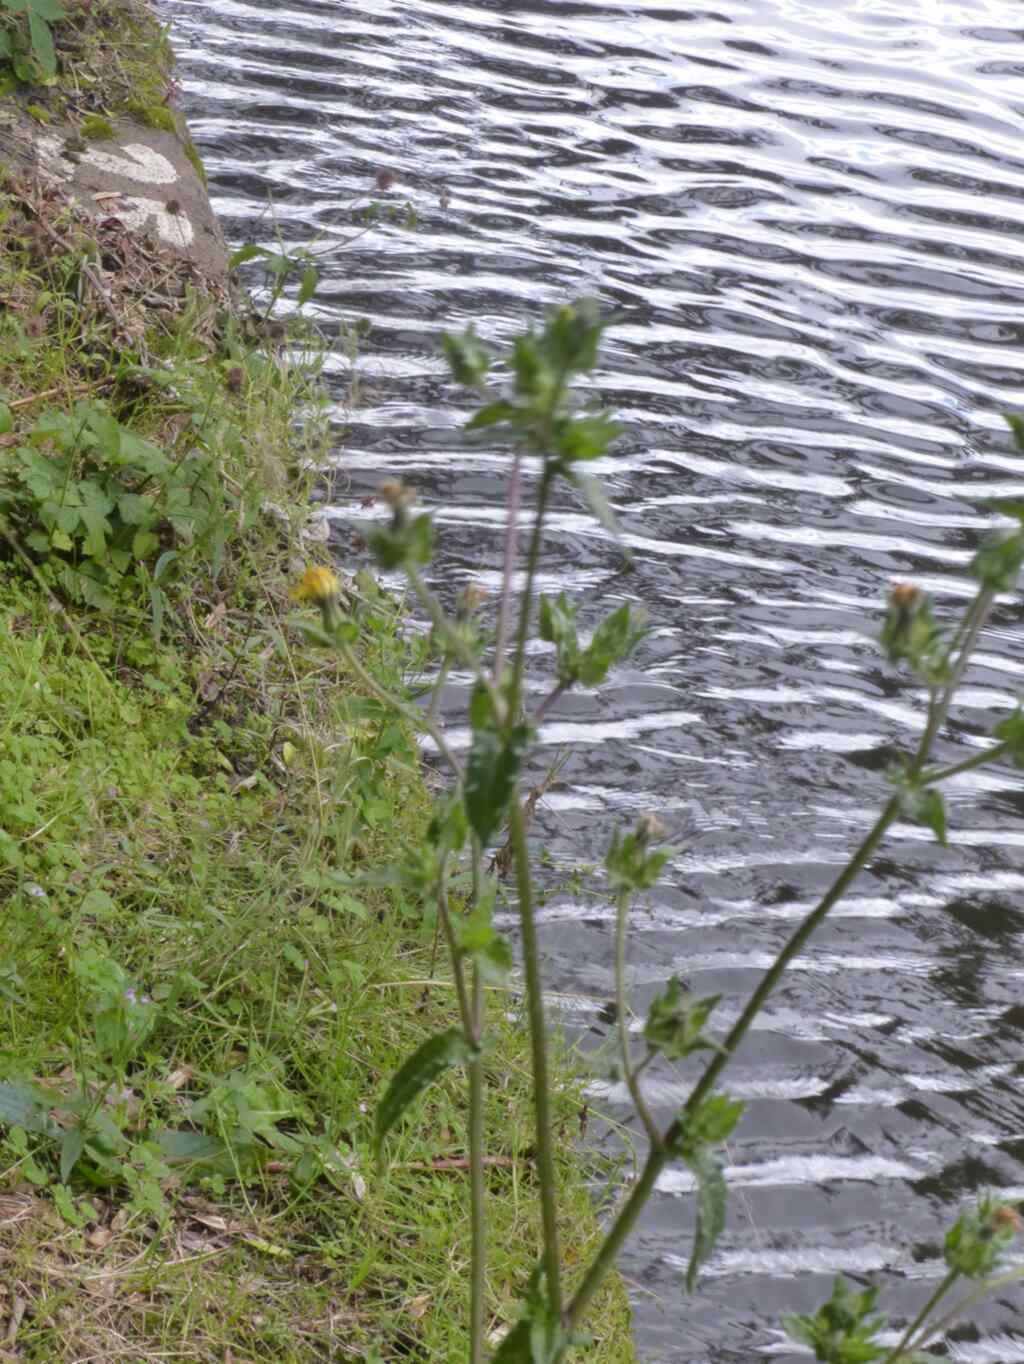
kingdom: Plantae
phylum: Tracheophyta
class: Magnoliopsida
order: Asterales
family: Asteraceae
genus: Helminthotheca
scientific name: Helminthotheca echioides
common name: Ox-tongue
